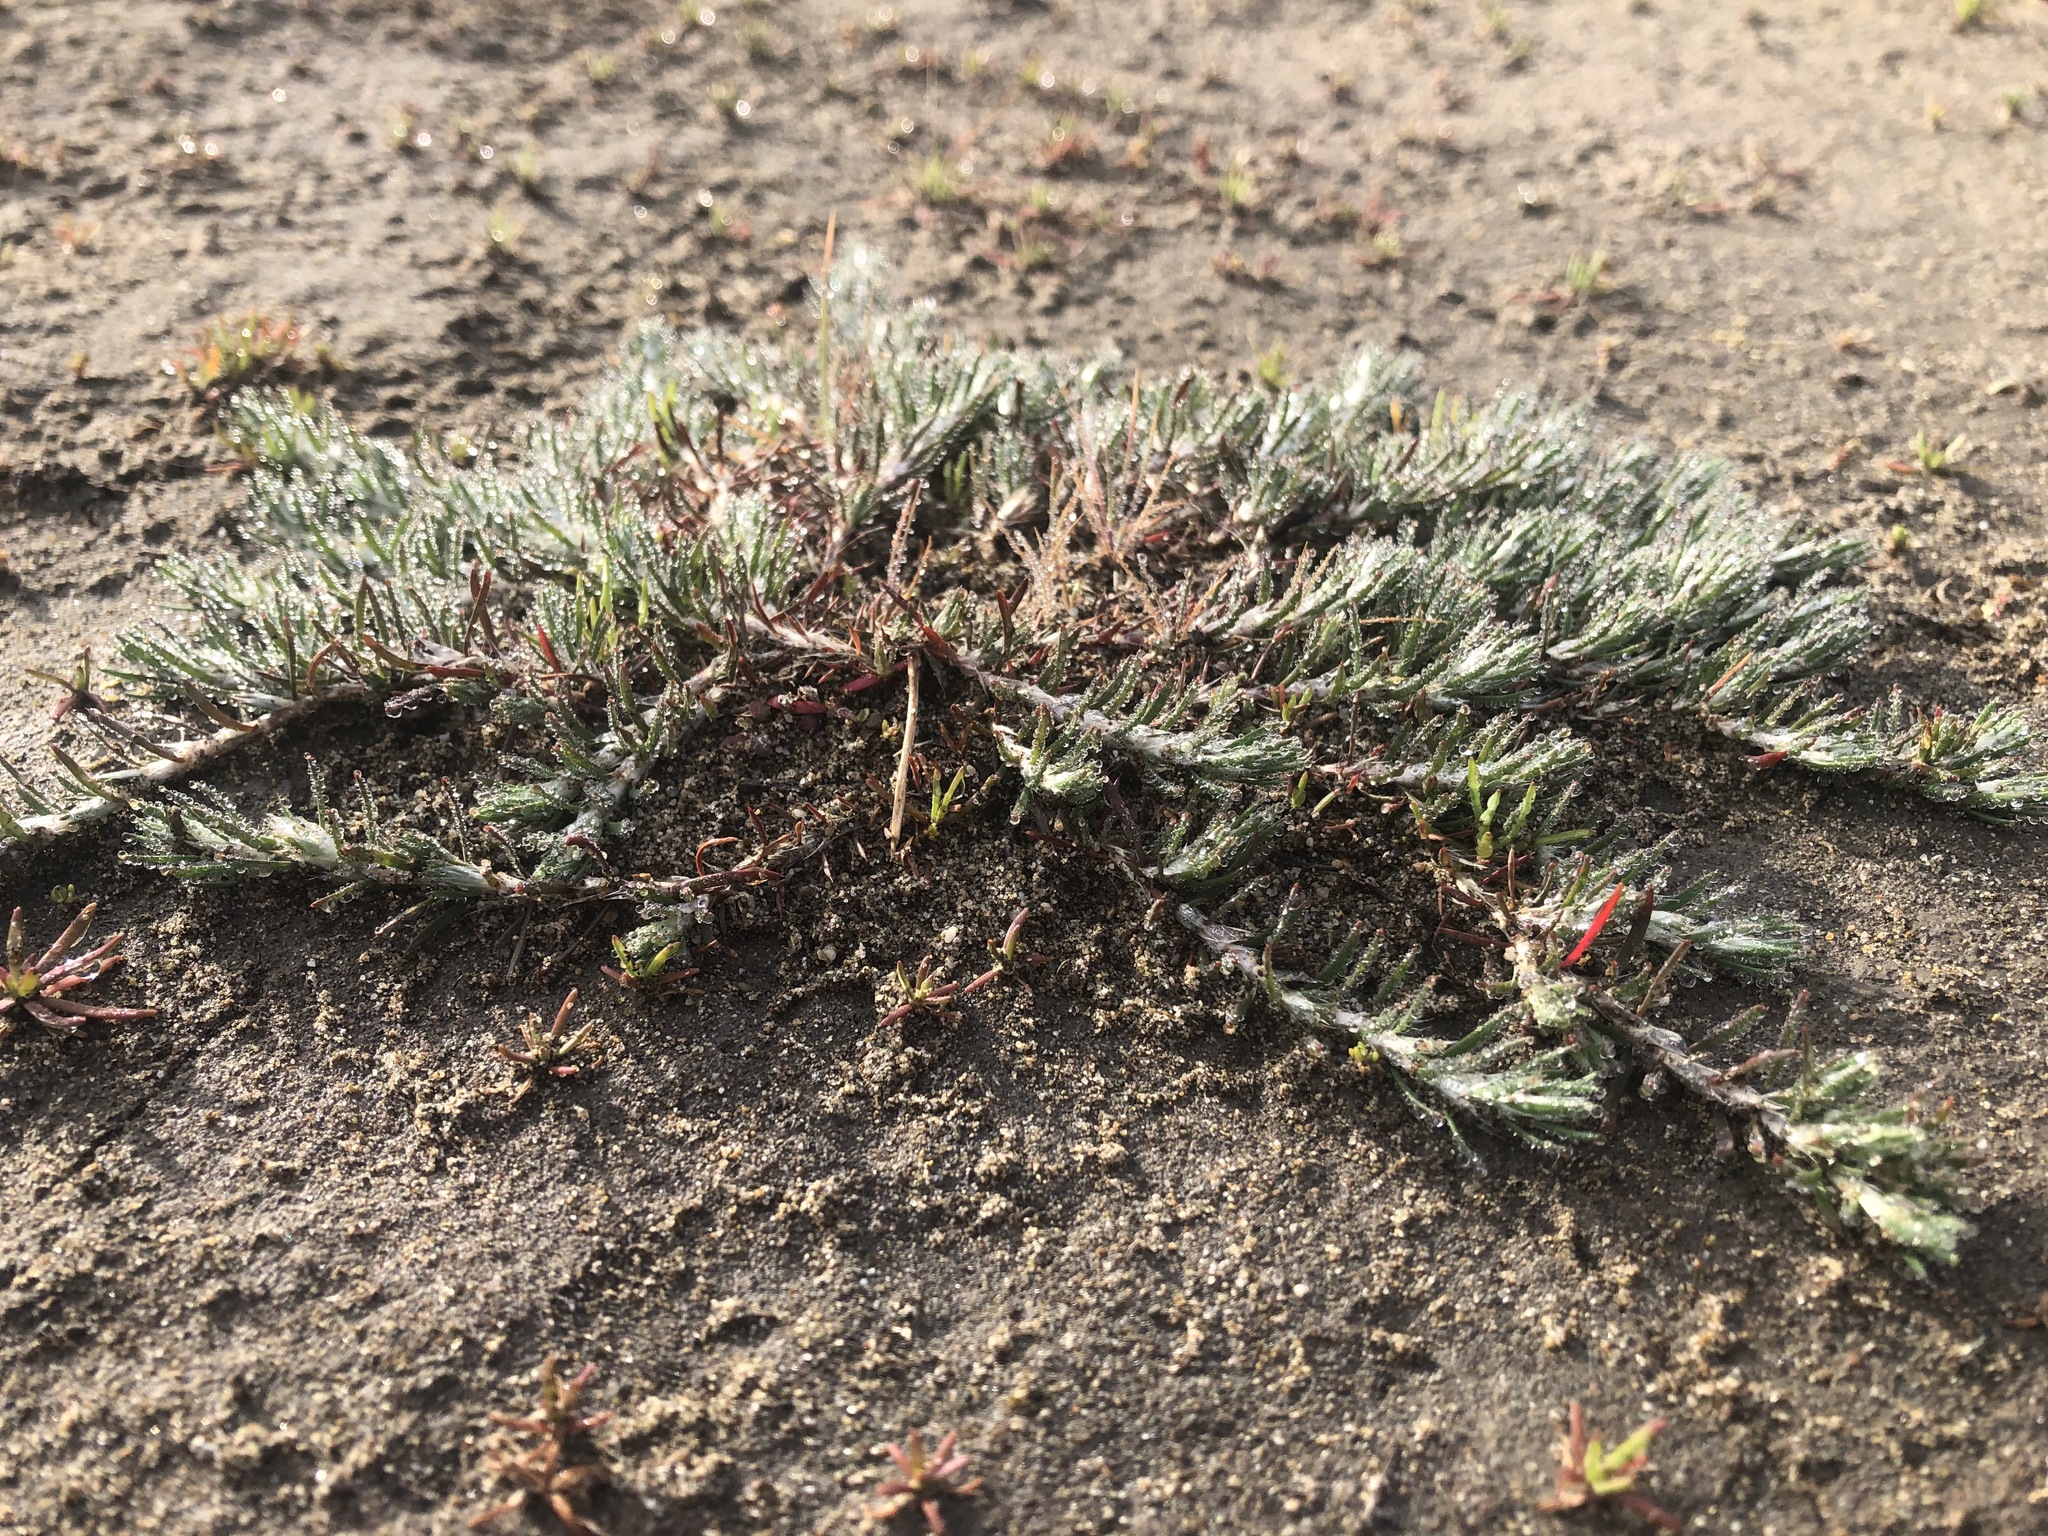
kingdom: Plantae
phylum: Tracheophyta
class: Magnoliopsida
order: Caryophyllales
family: Caryophyllaceae
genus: Cardionema
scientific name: Cardionema ramosissima
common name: Sandcarpet
